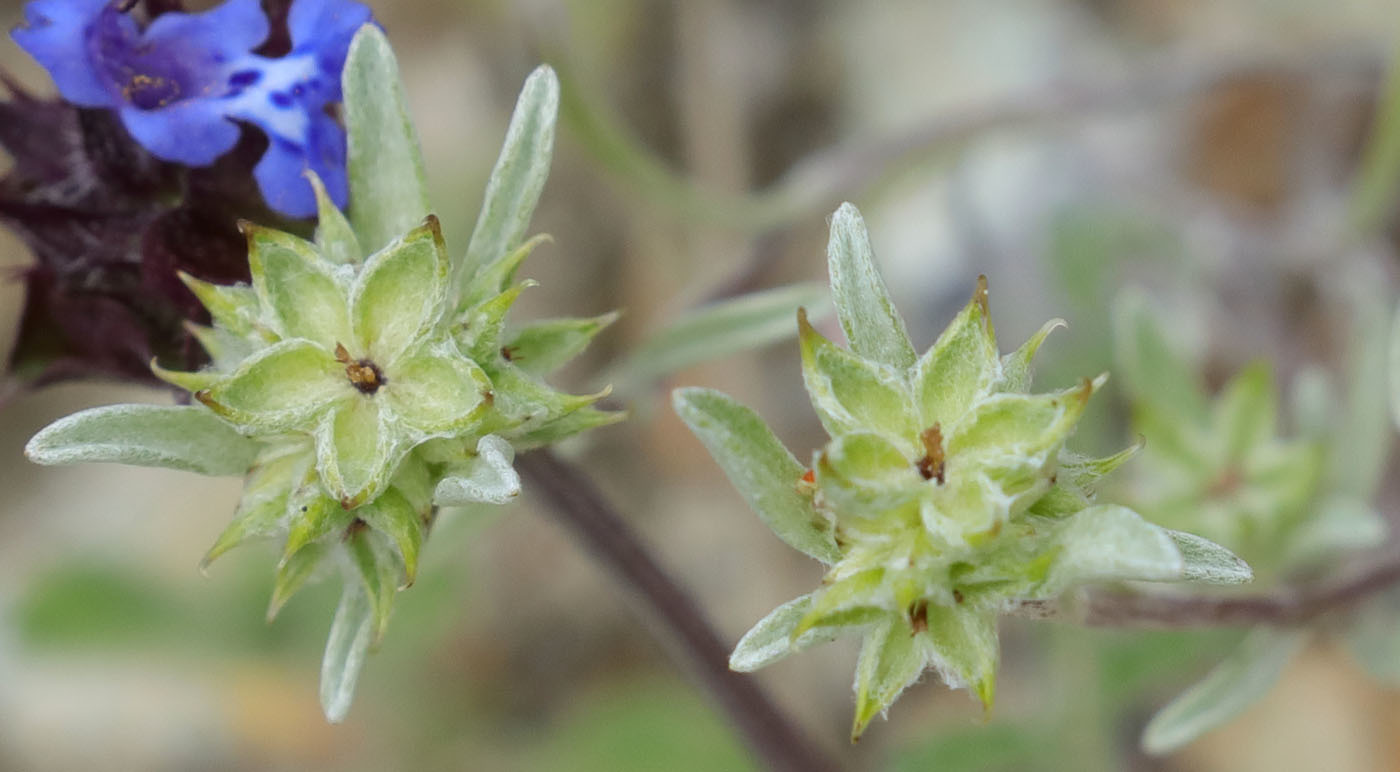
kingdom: Plantae
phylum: Tracheophyta
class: Magnoliopsida
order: Asterales
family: Asteraceae
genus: Ancistrocarphus
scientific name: Ancistrocarphus filagineus
